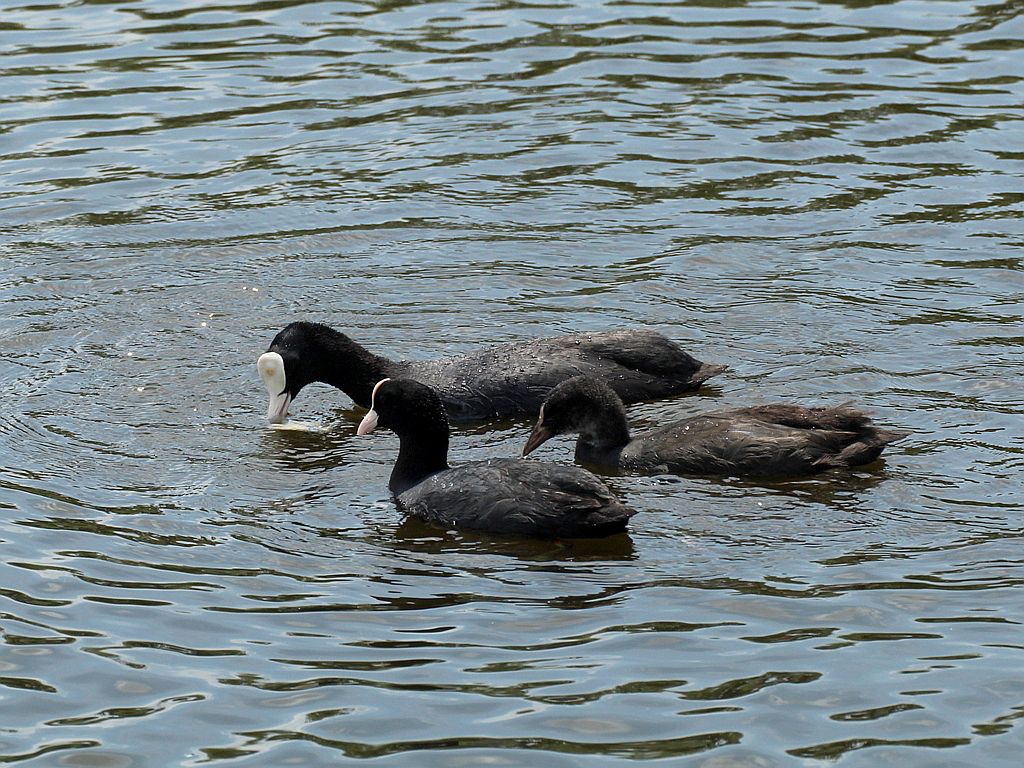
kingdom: Animalia
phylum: Chordata
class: Aves
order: Gruiformes
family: Rallidae
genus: Fulica
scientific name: Fulica atra
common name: Eurasian coot
